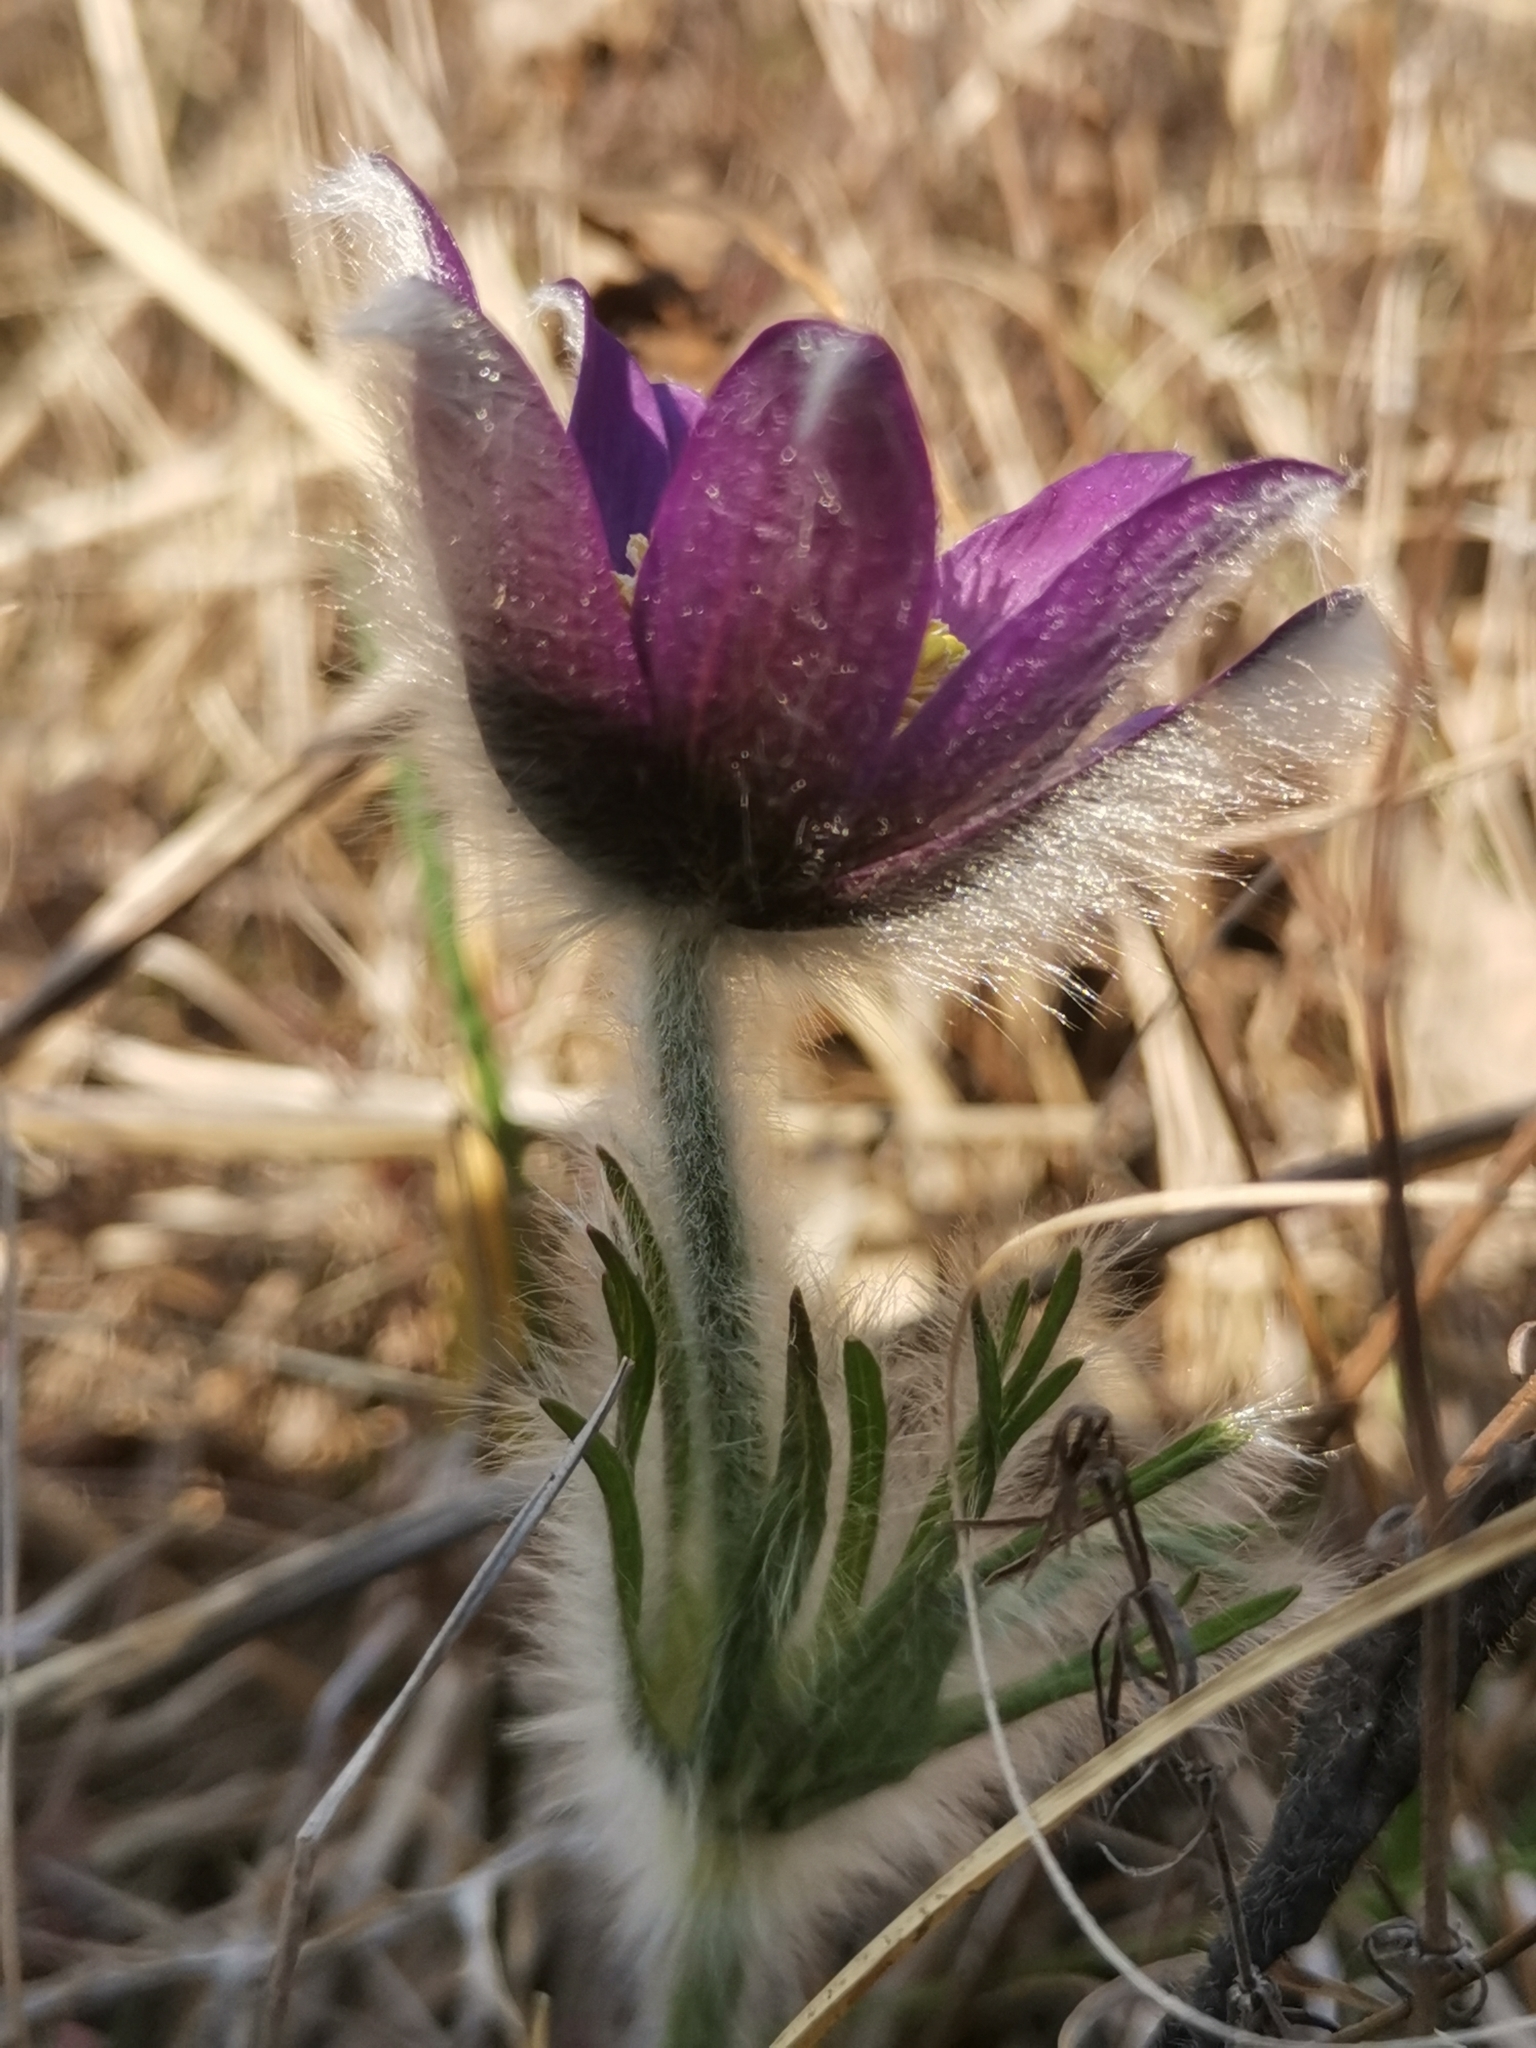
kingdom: Plantae
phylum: Tracheophyta
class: Magnoliopsida
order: Ranunculales
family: Ranunculaceae
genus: Pulsatilla
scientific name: Pulsatilla montana
